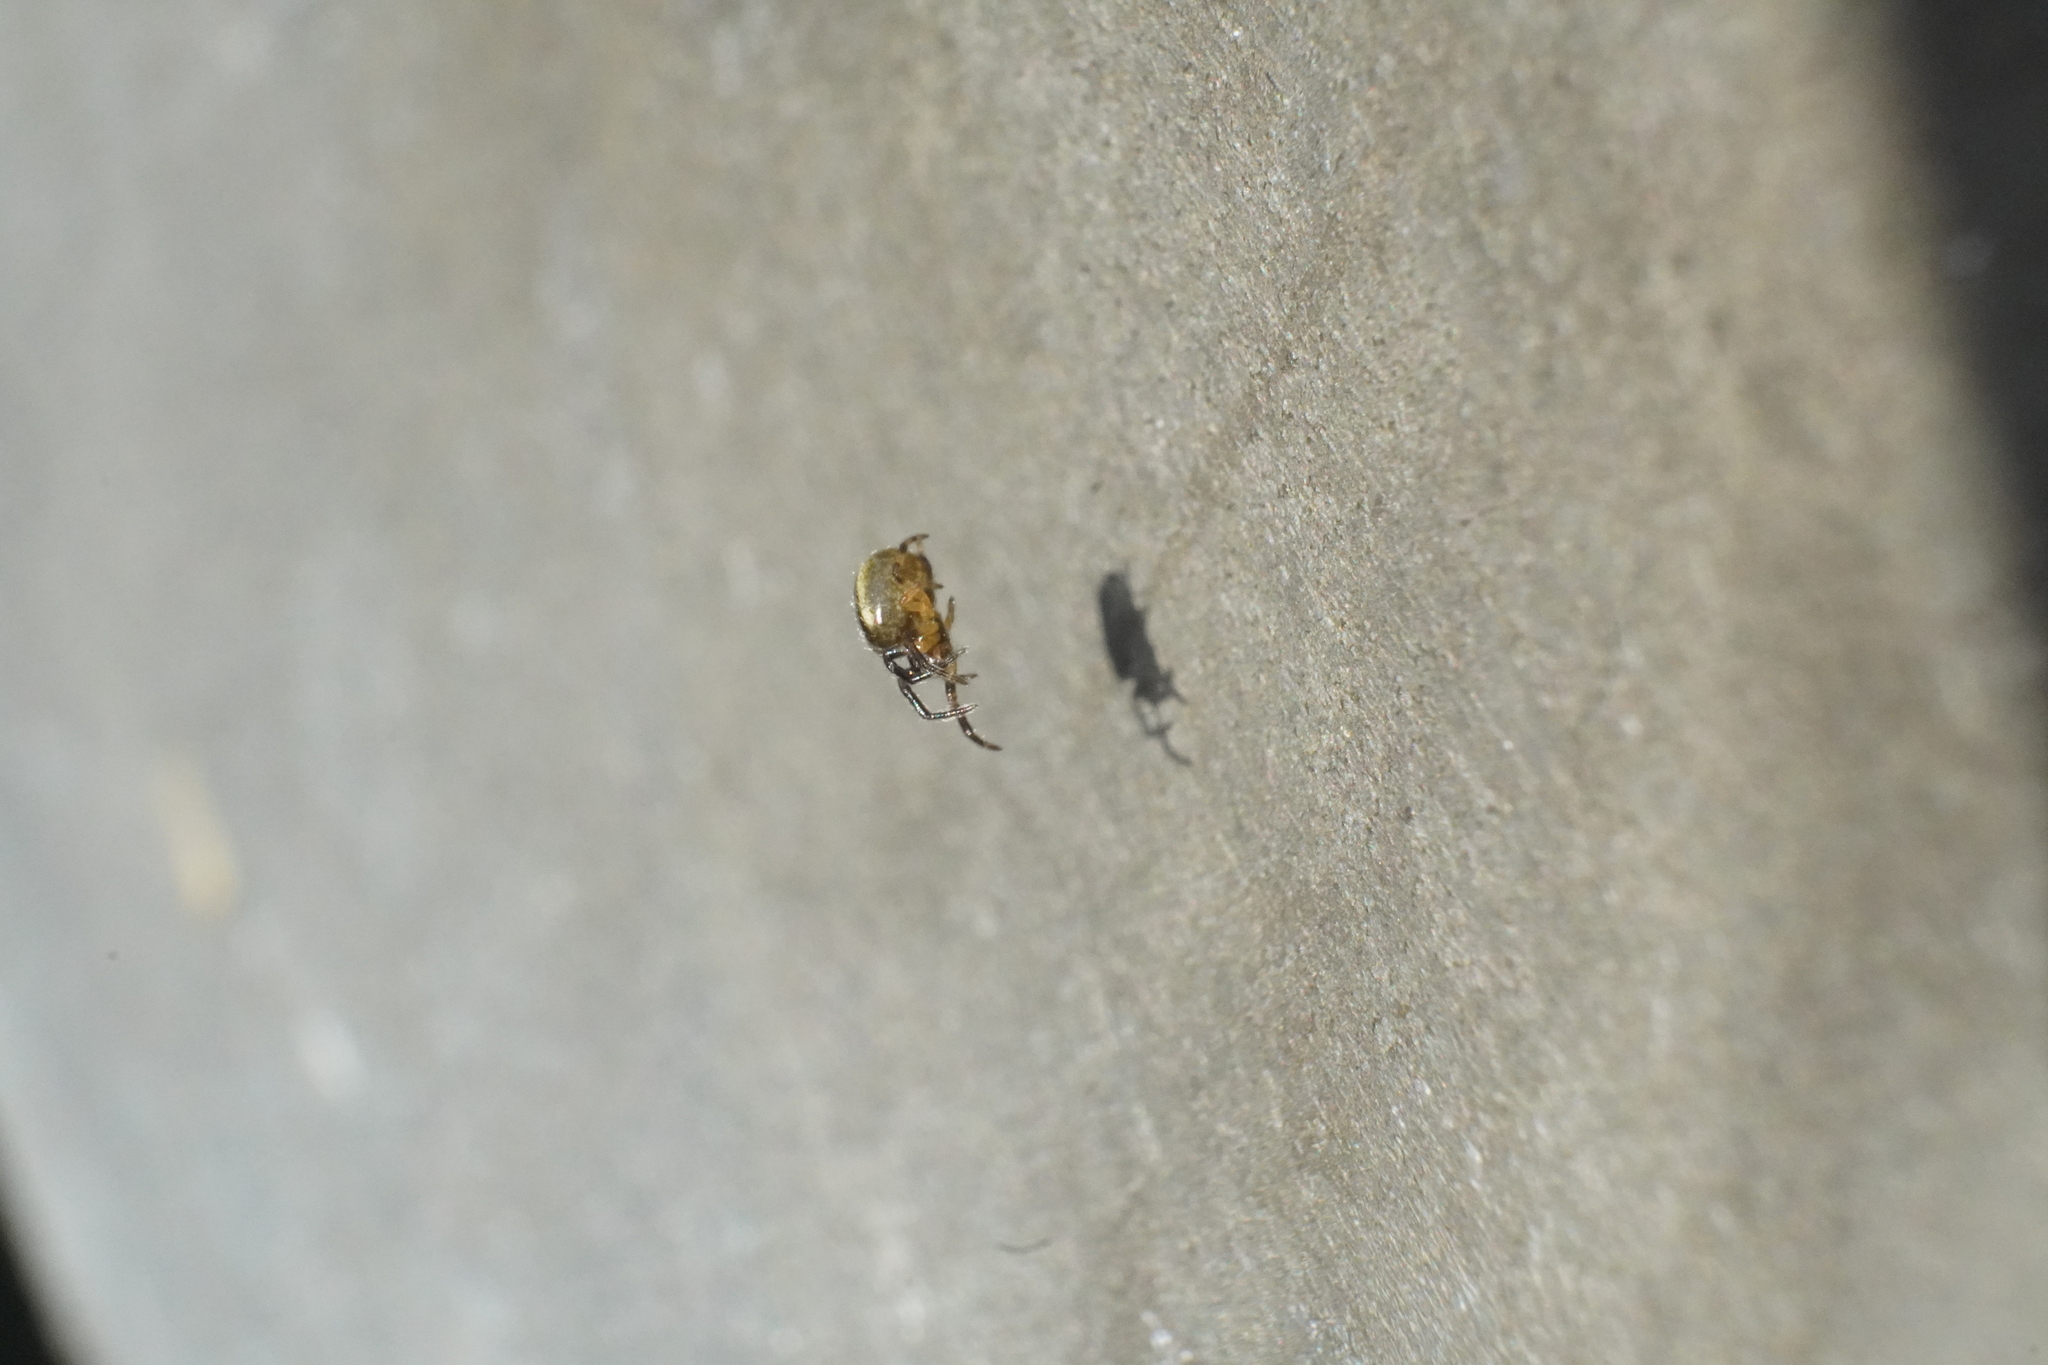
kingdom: Animalia
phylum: Arthropoda
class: Arachnida
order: Araneae
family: Araneidae
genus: Larinioides
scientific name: Larinioides cornutus
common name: Furrow orbweaver
